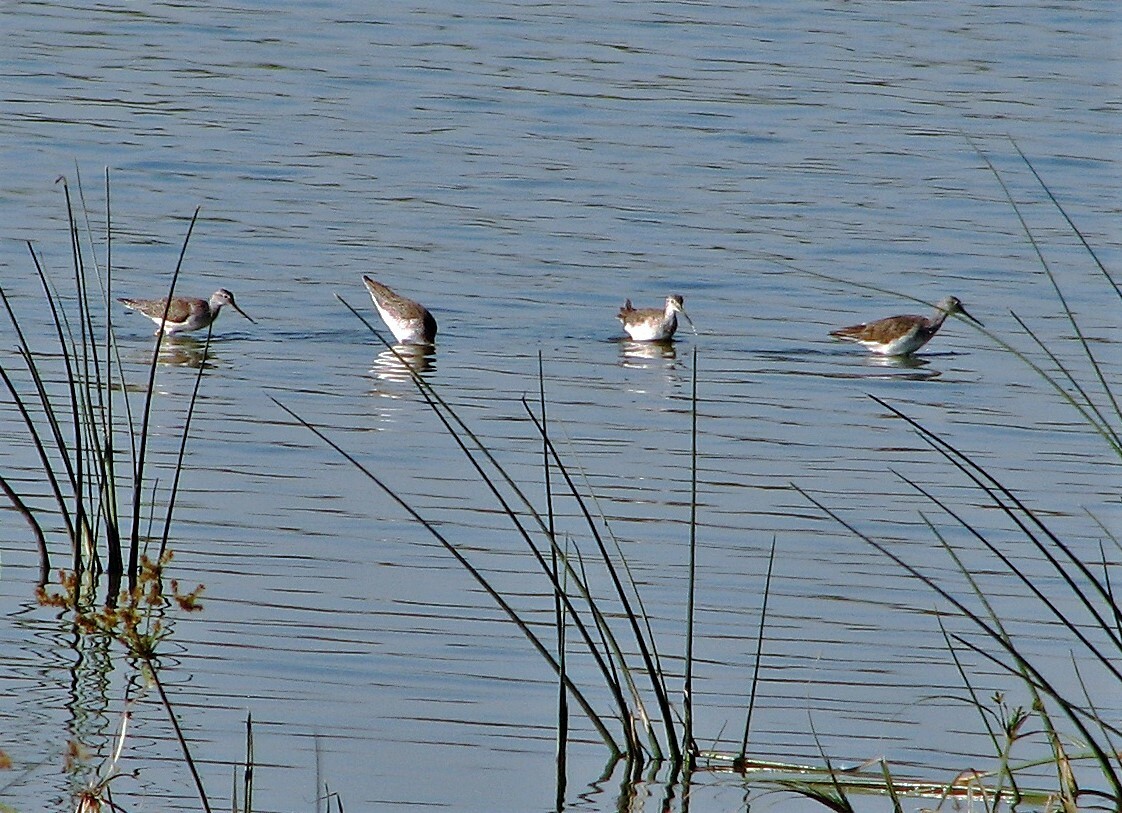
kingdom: Animalia
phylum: Chordata
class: Aves
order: Charadriiformes
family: Scolopacidae
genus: Tringa
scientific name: Tringa melanoleuca
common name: Greater yellowlegs
